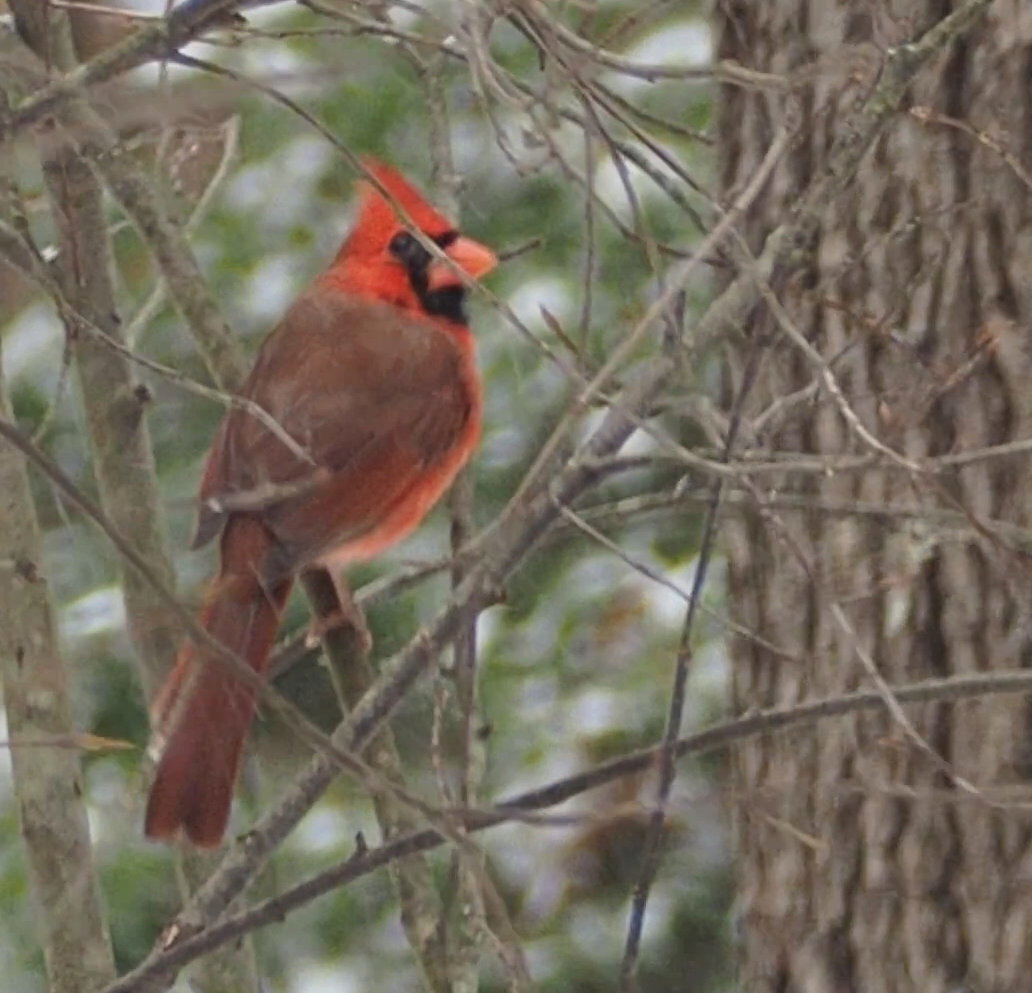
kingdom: Animalia
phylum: Chordata
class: Aves
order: Passeriformes
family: Cardinalidae
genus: Cardinalis
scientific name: Cardinalis cardinalis
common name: Northern cardinal
